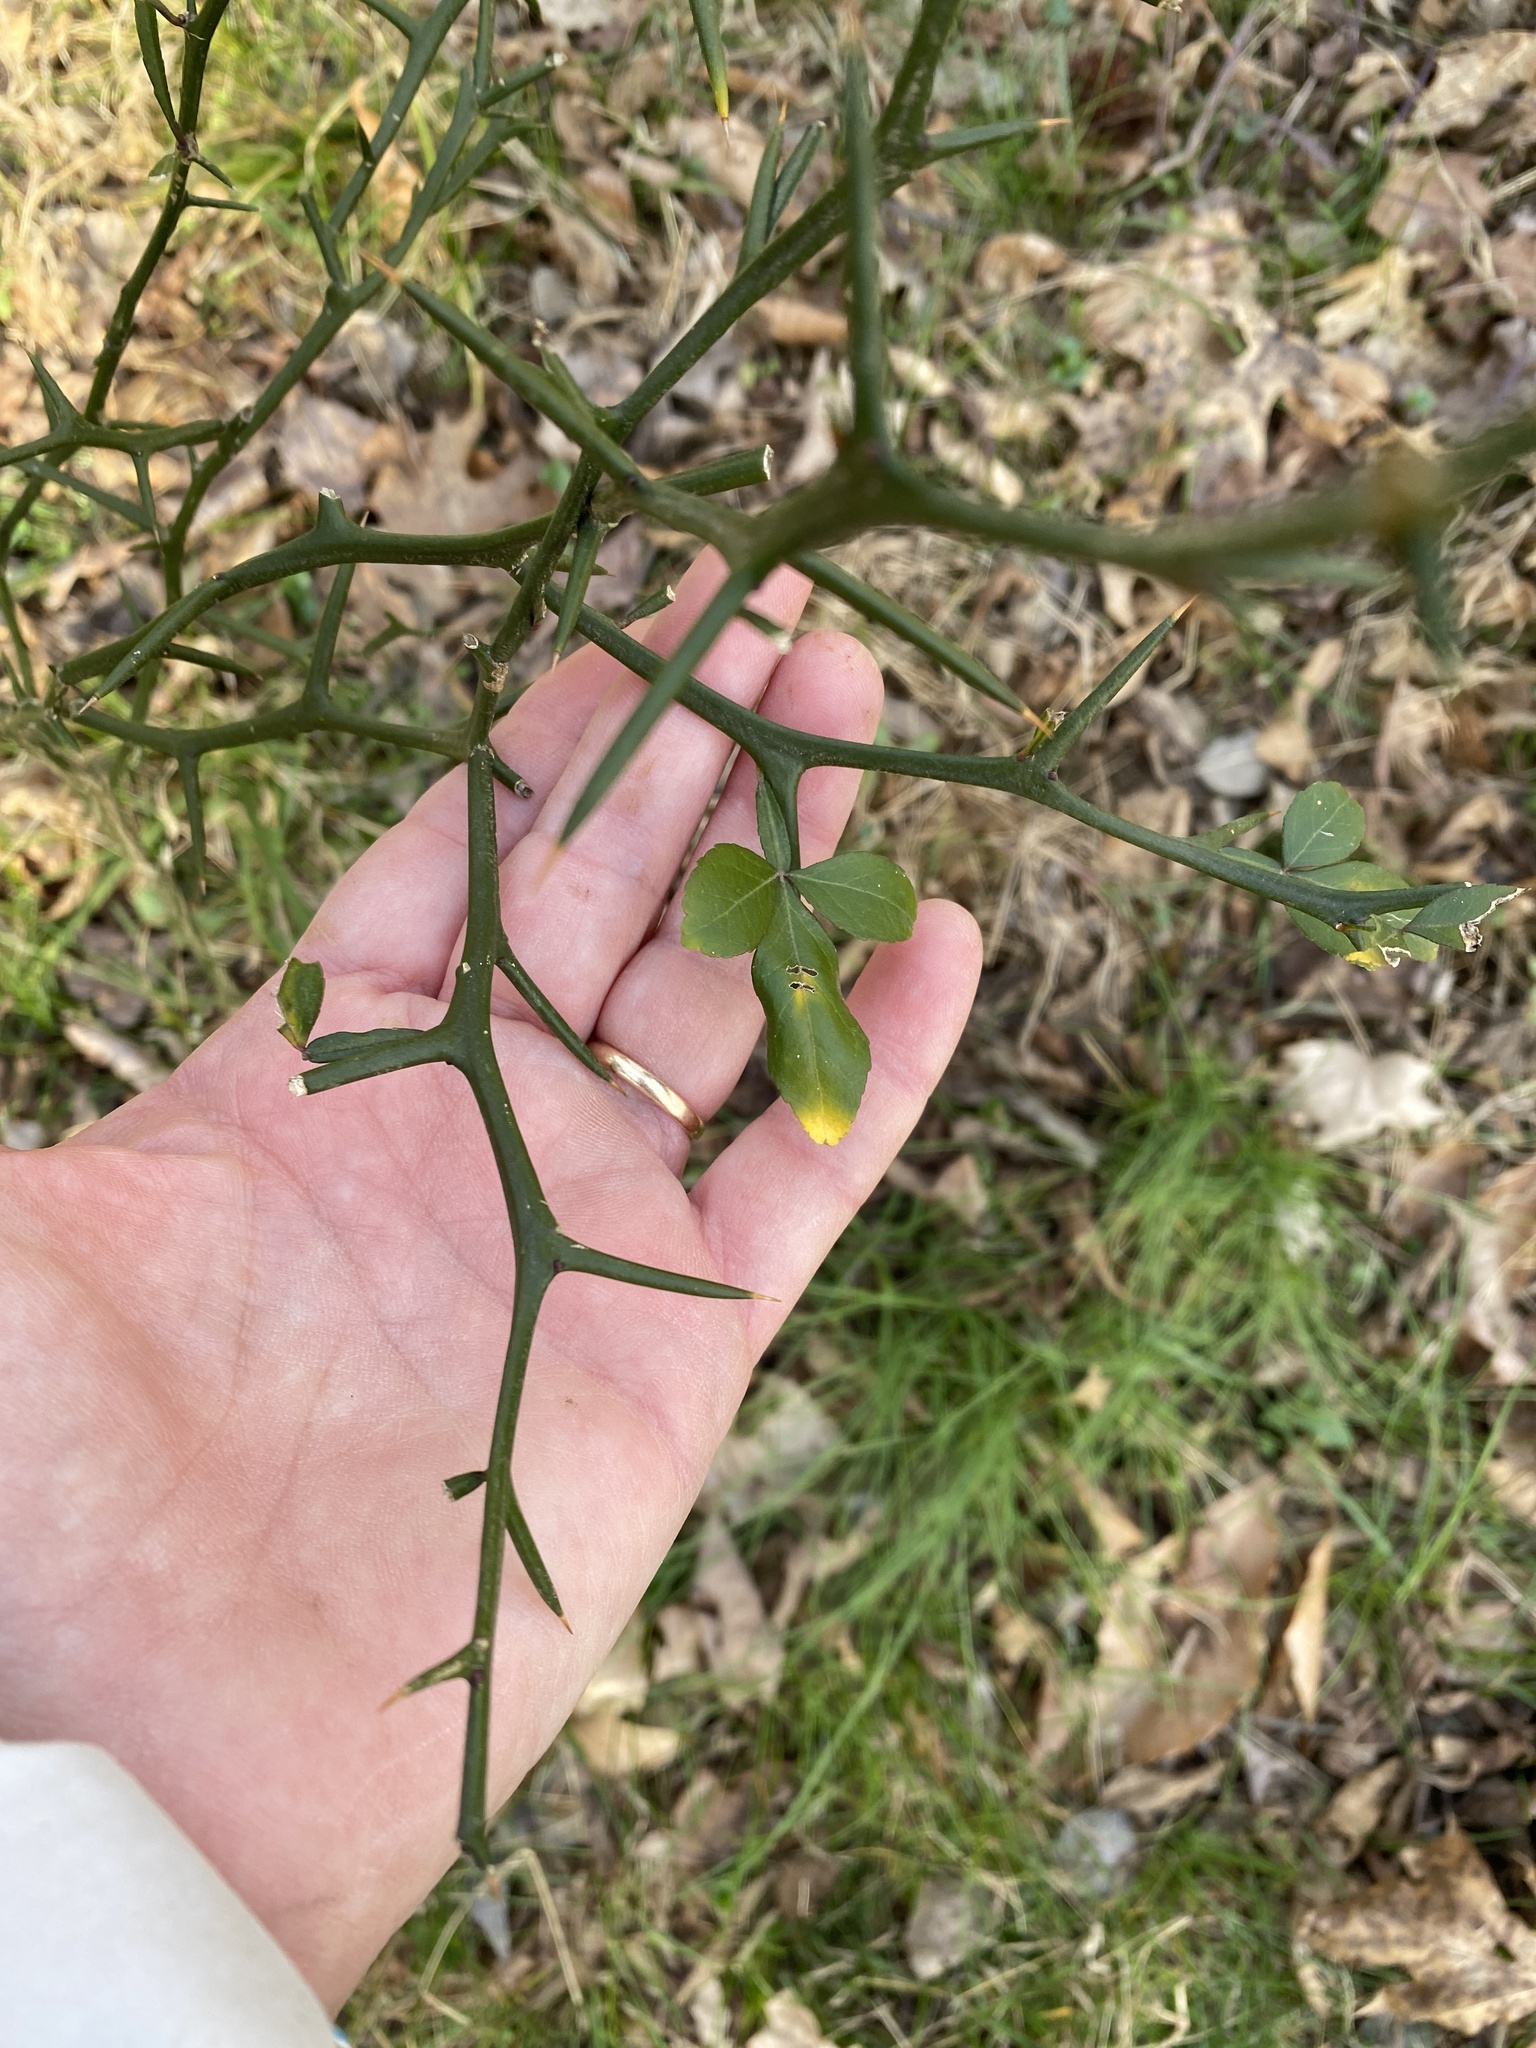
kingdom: Plantae
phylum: Tracheophyta
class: Magnoliopsida
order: Sapindales
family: Rutaceae
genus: Citrus
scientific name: Citrus trifoliata
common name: Japanese bitter-orange
